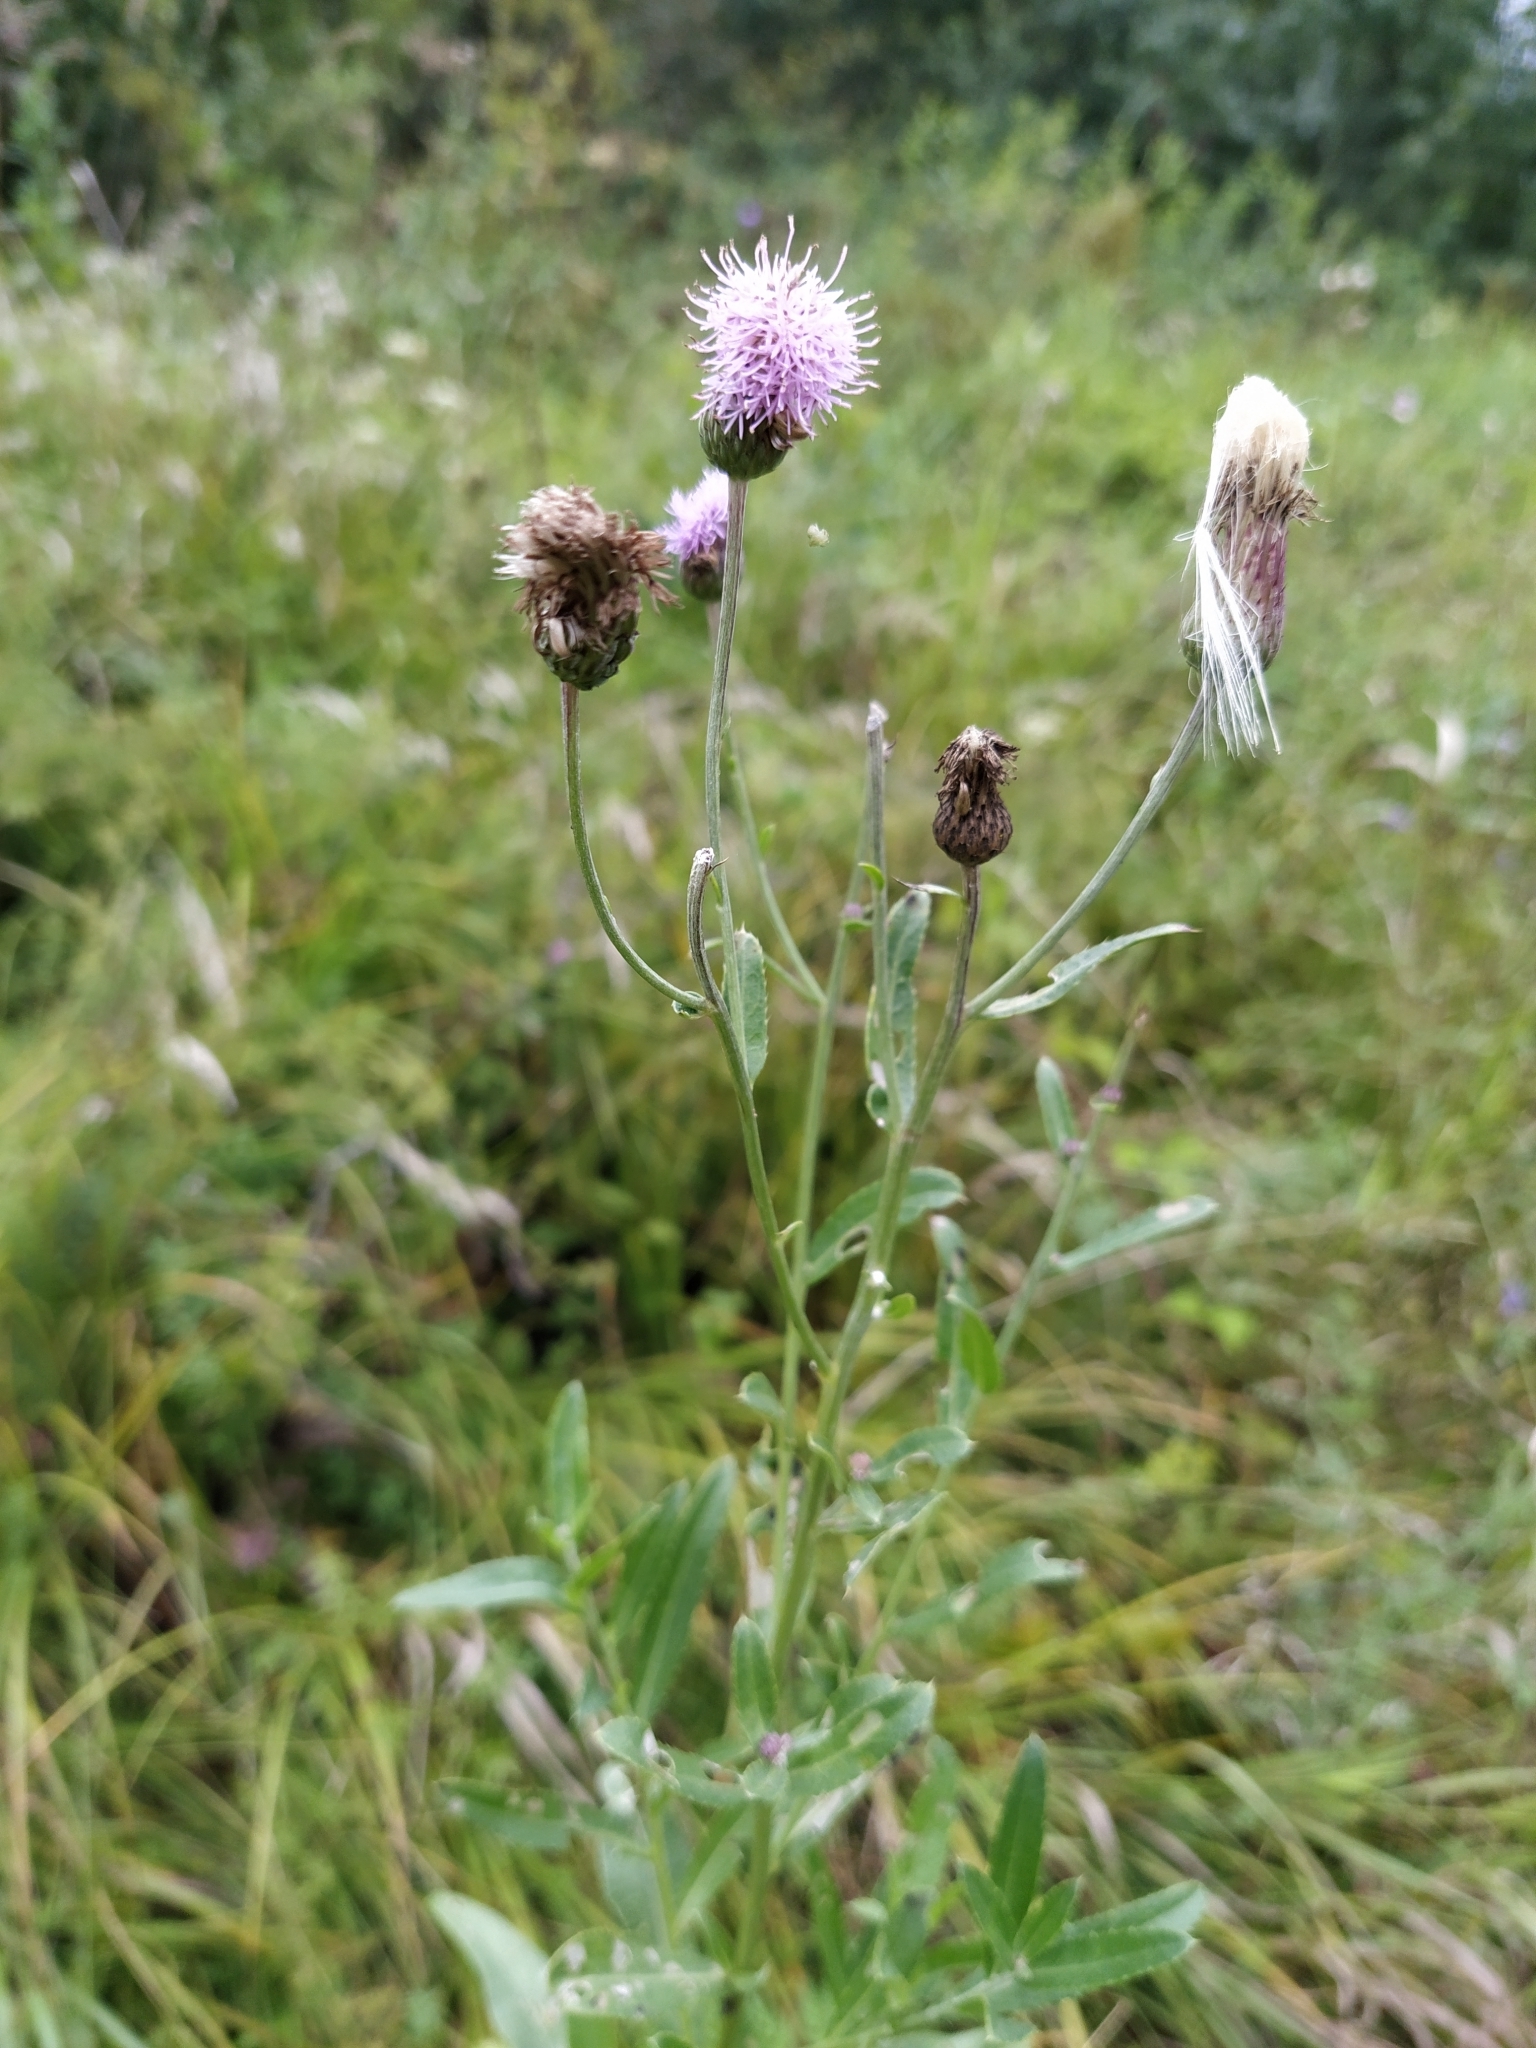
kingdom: Plantae
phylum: Tracheophyta
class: Magnoliopsida
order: Asterales
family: Asteraceae
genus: Cirsium
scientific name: Cirsium arvense
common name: Creeping thistle
